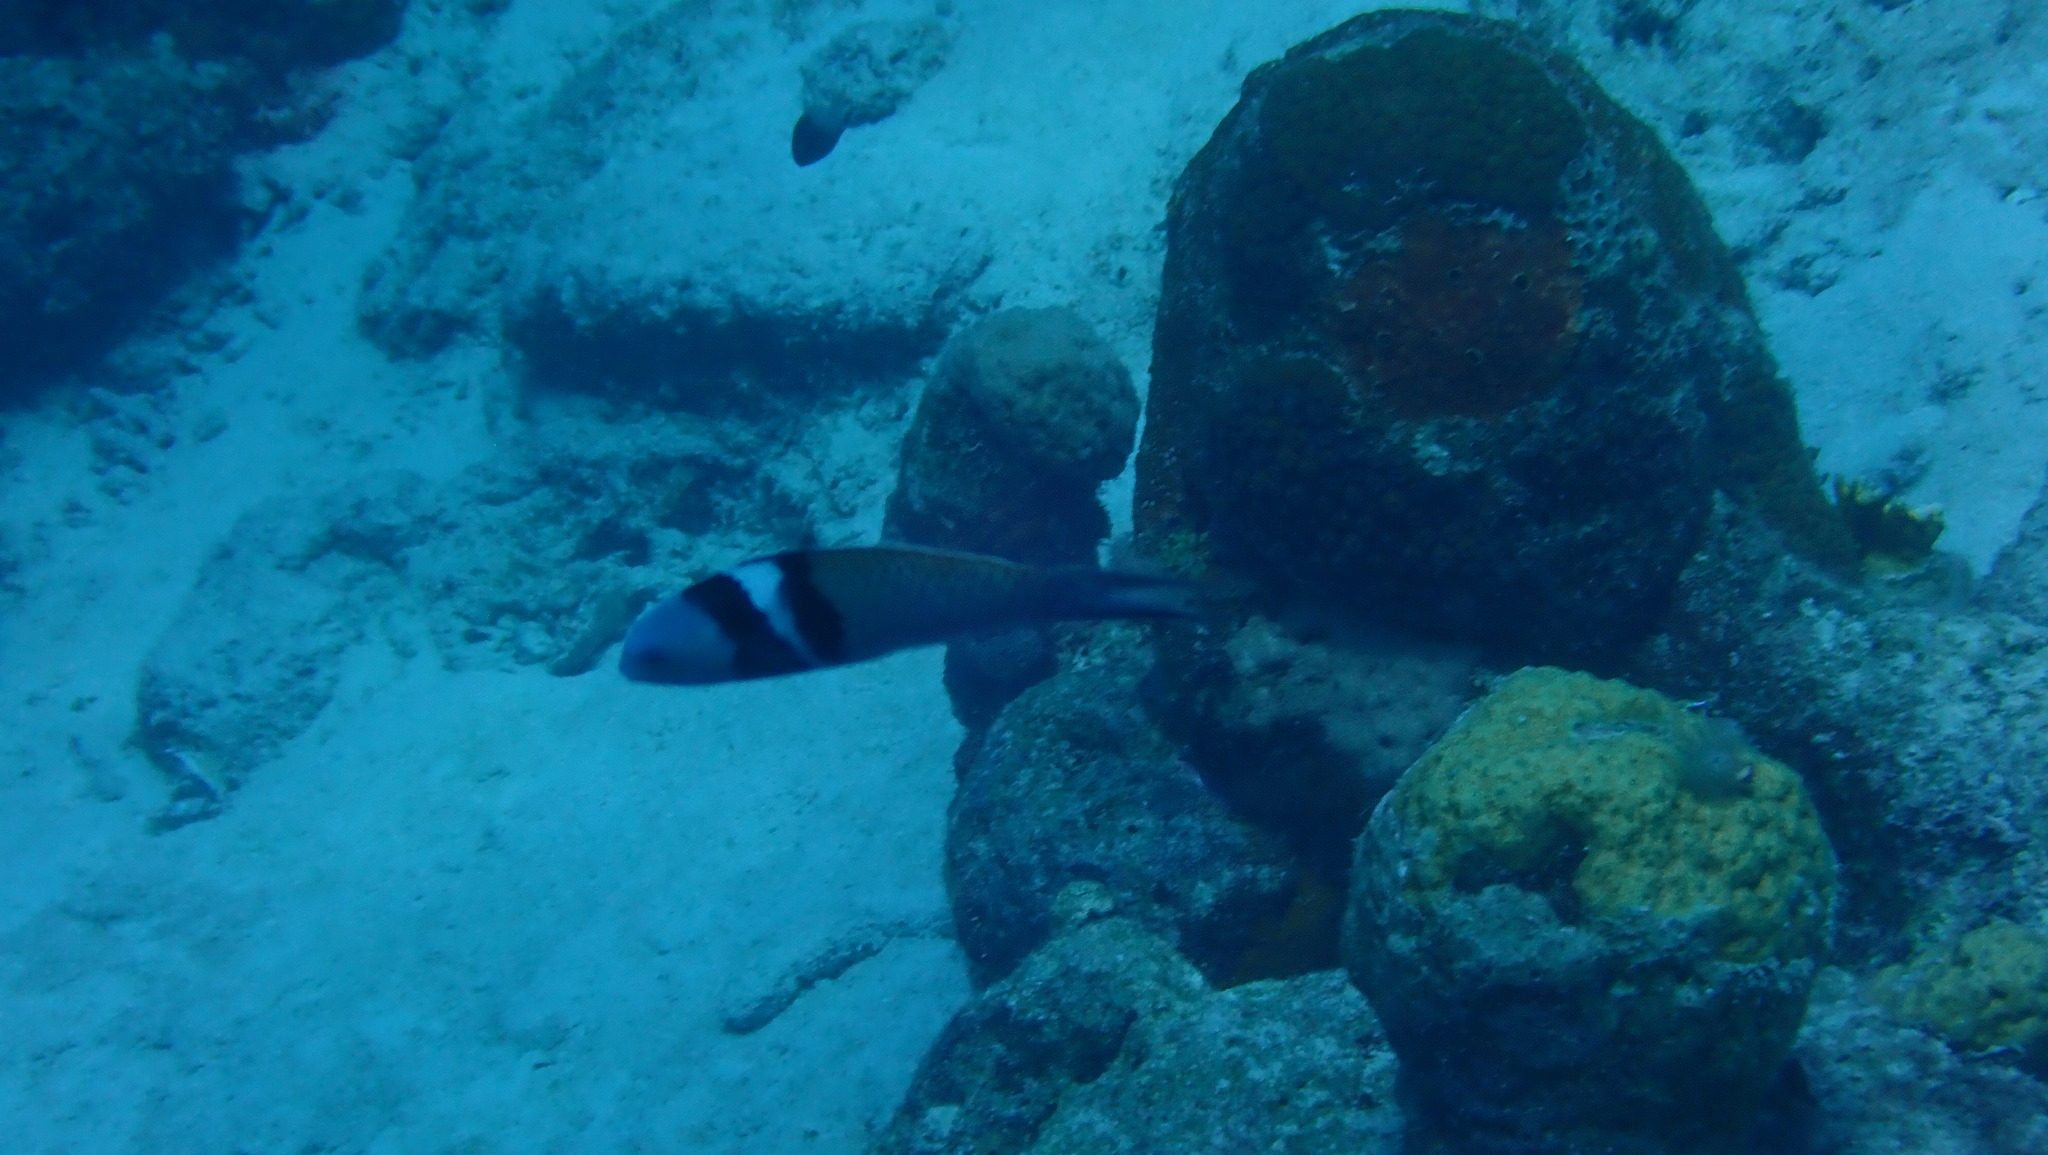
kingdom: Animalia
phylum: Chordata
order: Perciformes
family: Labridae
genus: Thalassoma
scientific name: Thalassoma bifasciatum
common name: Bluehead wrasse
